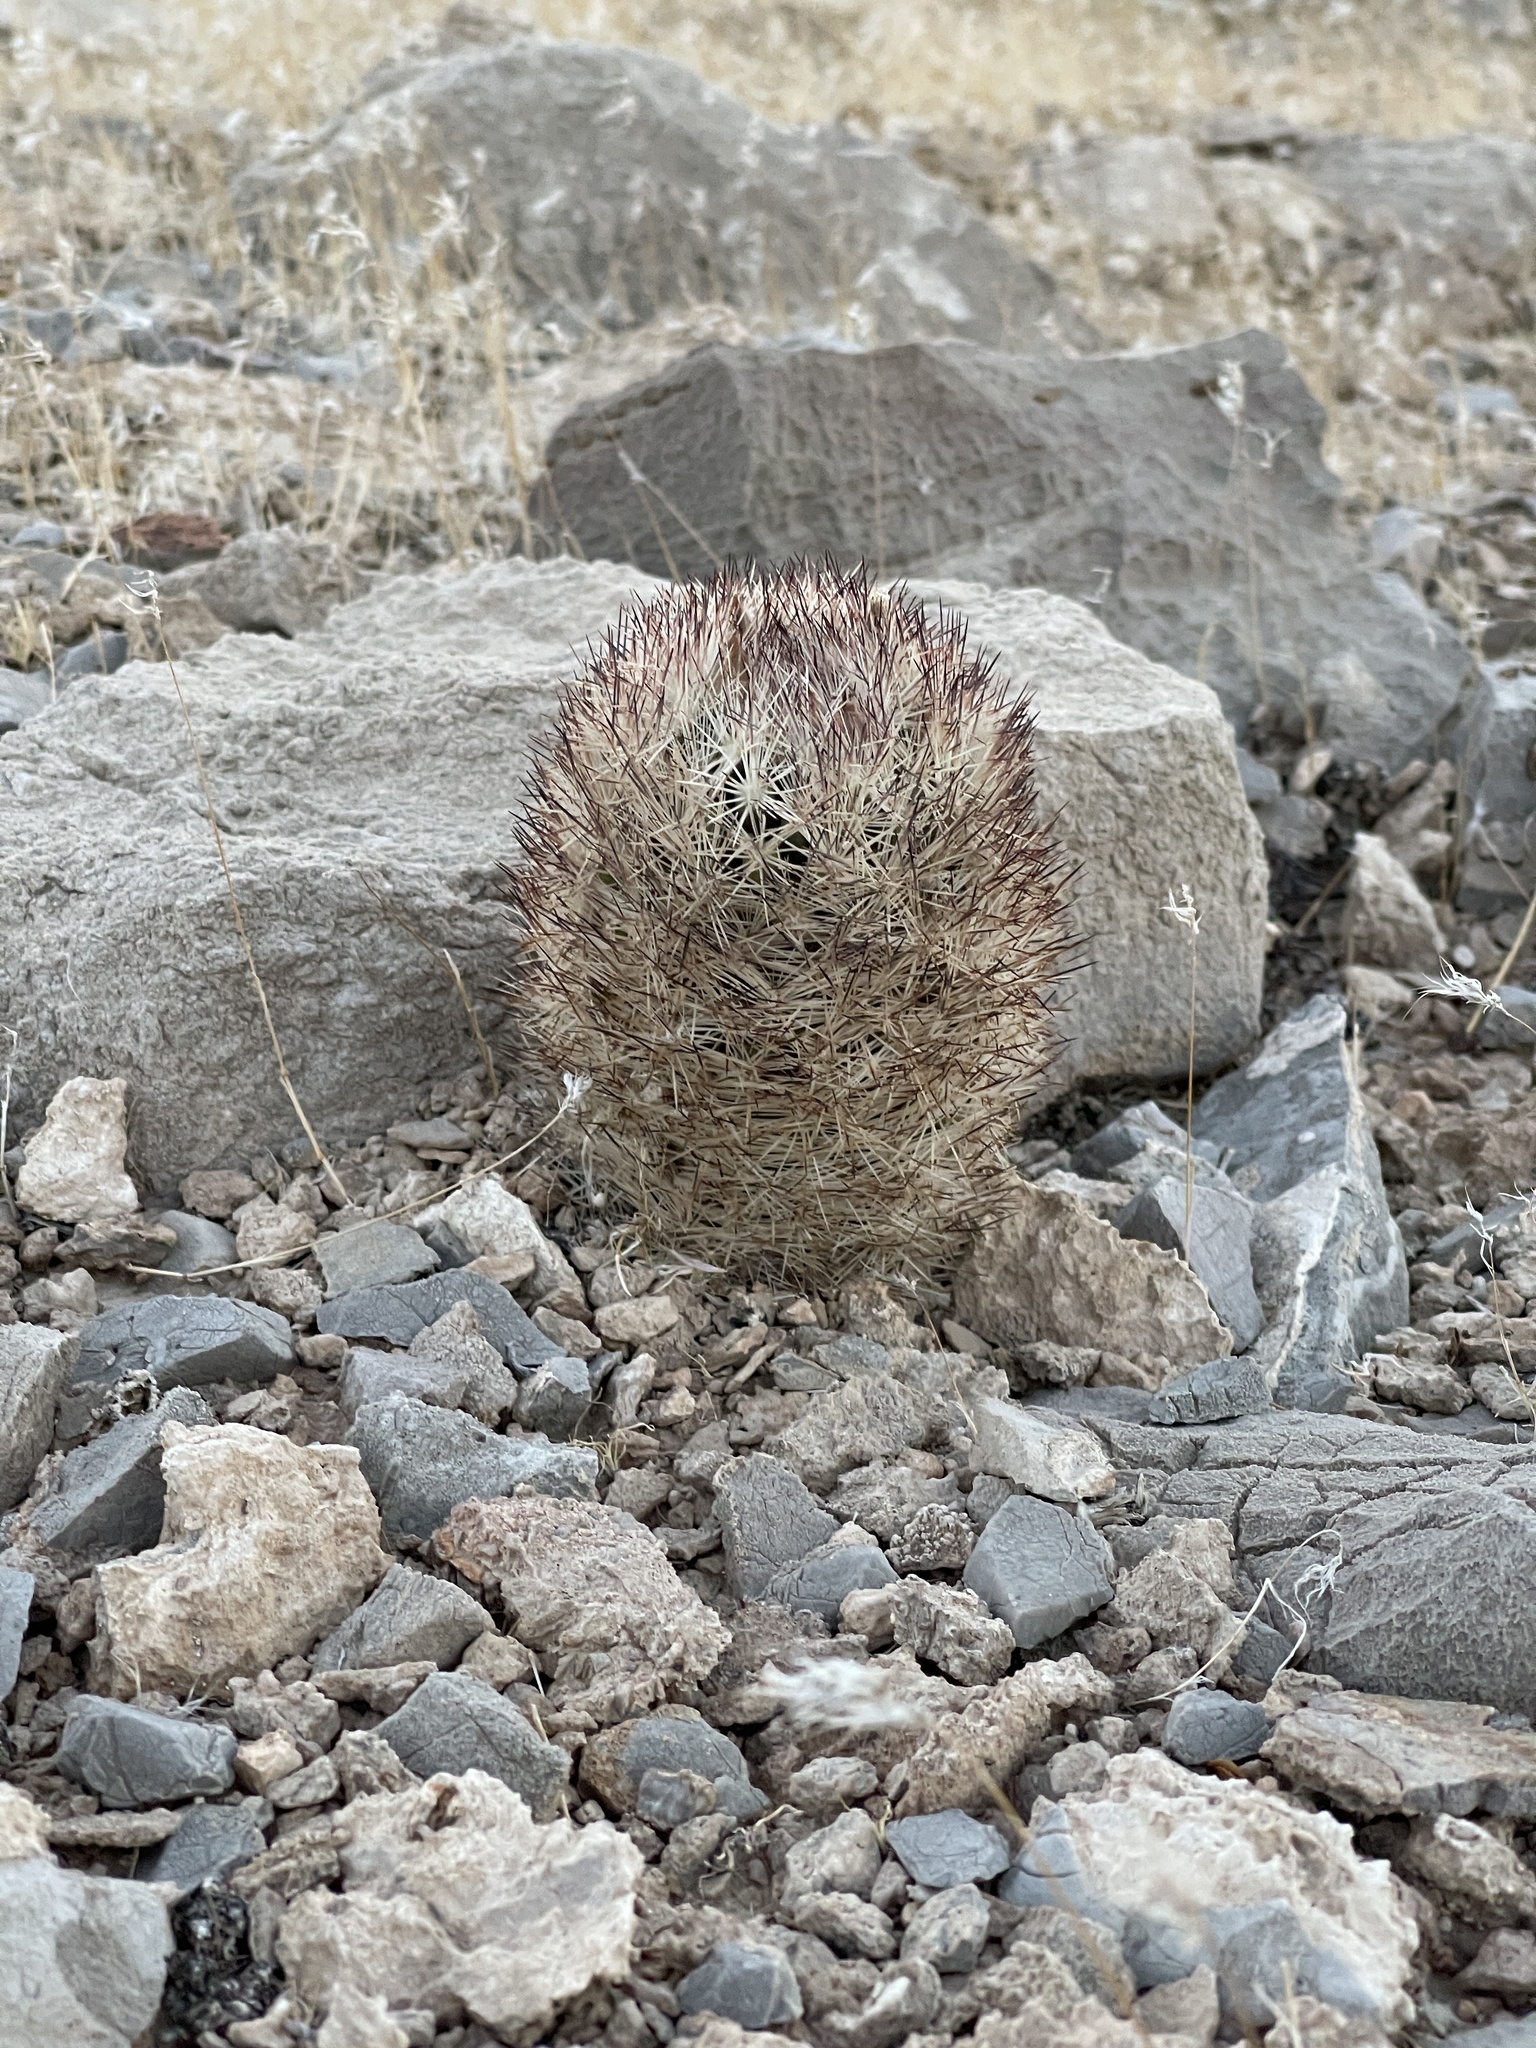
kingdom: Plantae
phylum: Tracheophyta
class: Magnoliopsida
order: Caryophyllales
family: Cactaceae
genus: Pelecyphora
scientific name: Pelecyphora dasyacantha
